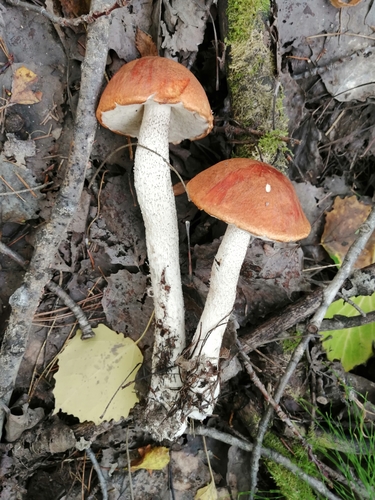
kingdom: Fungi
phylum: Basidiomycota
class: Agaricomycetes
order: Boletales
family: Boletaceae
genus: Leccinum
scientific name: Leccinum versipelle
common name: Orange birch bolete
